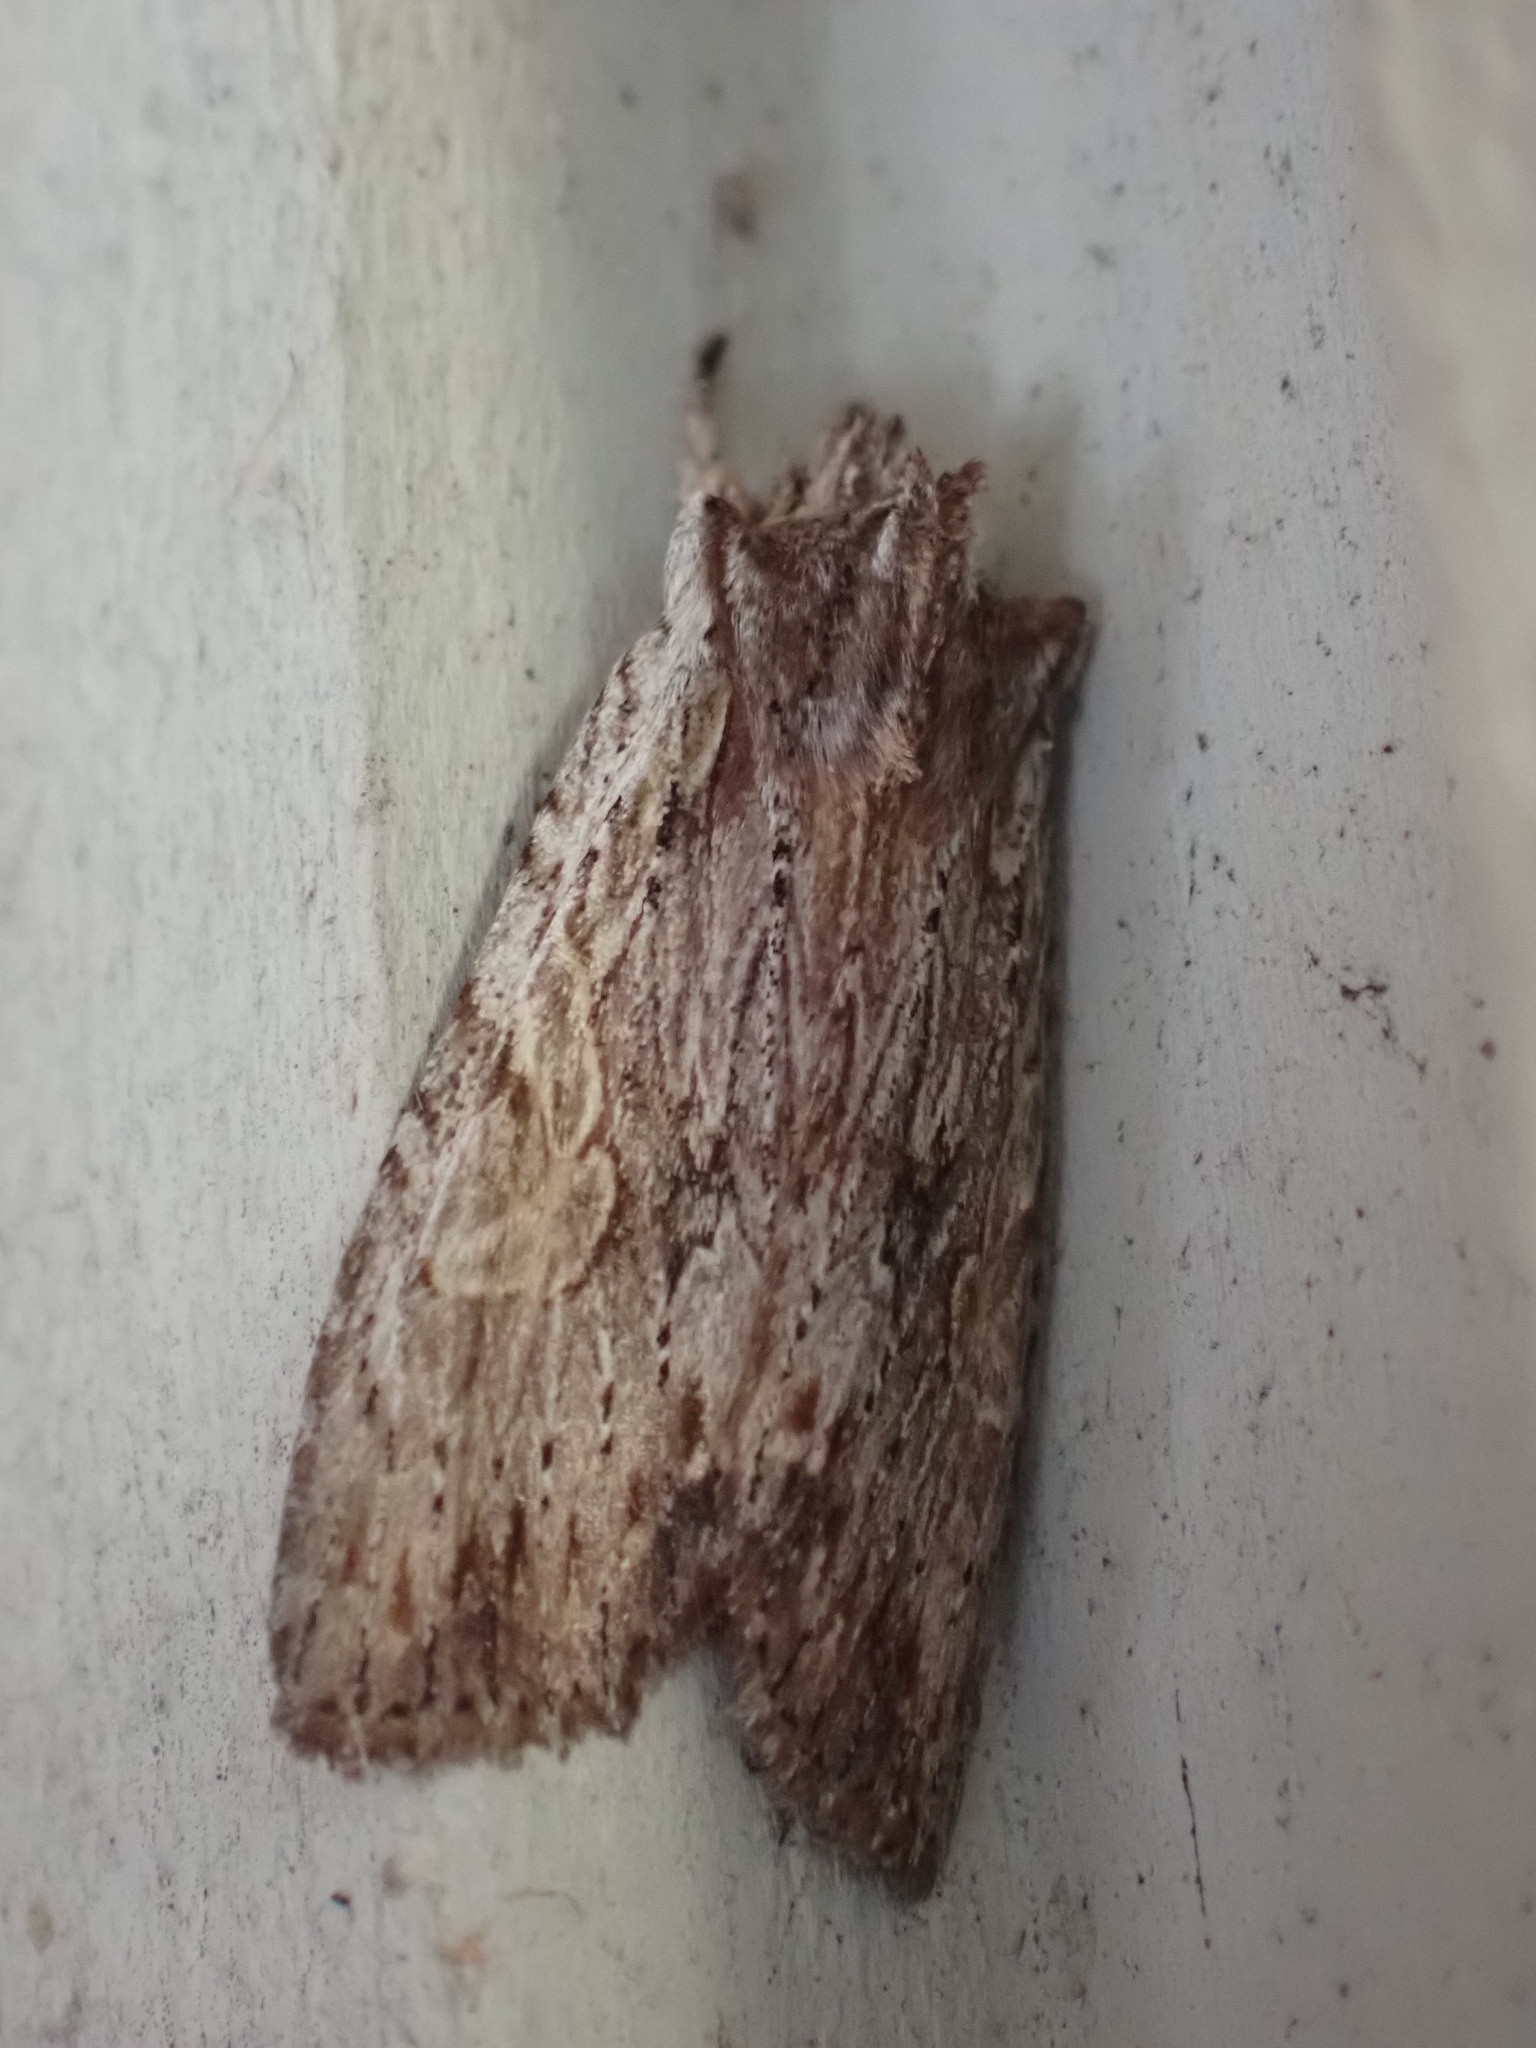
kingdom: Animalia
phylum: Arthropoda
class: Insecta
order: Lepidoptera
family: Noctuidae
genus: Lithophane
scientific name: Lithophane petulca
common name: Wanton pinion
